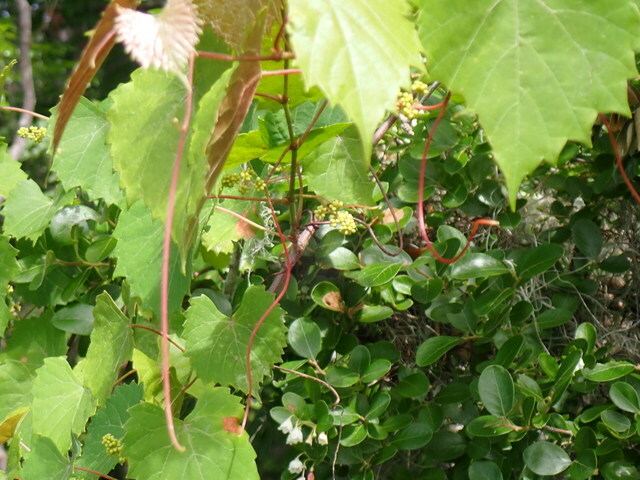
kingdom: Plantae
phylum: Tracheophyta
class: Magnoliopsida
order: Vitales
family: Vitaceae
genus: Vitis
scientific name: Vitis rotundifolia
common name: Muscadine grape
